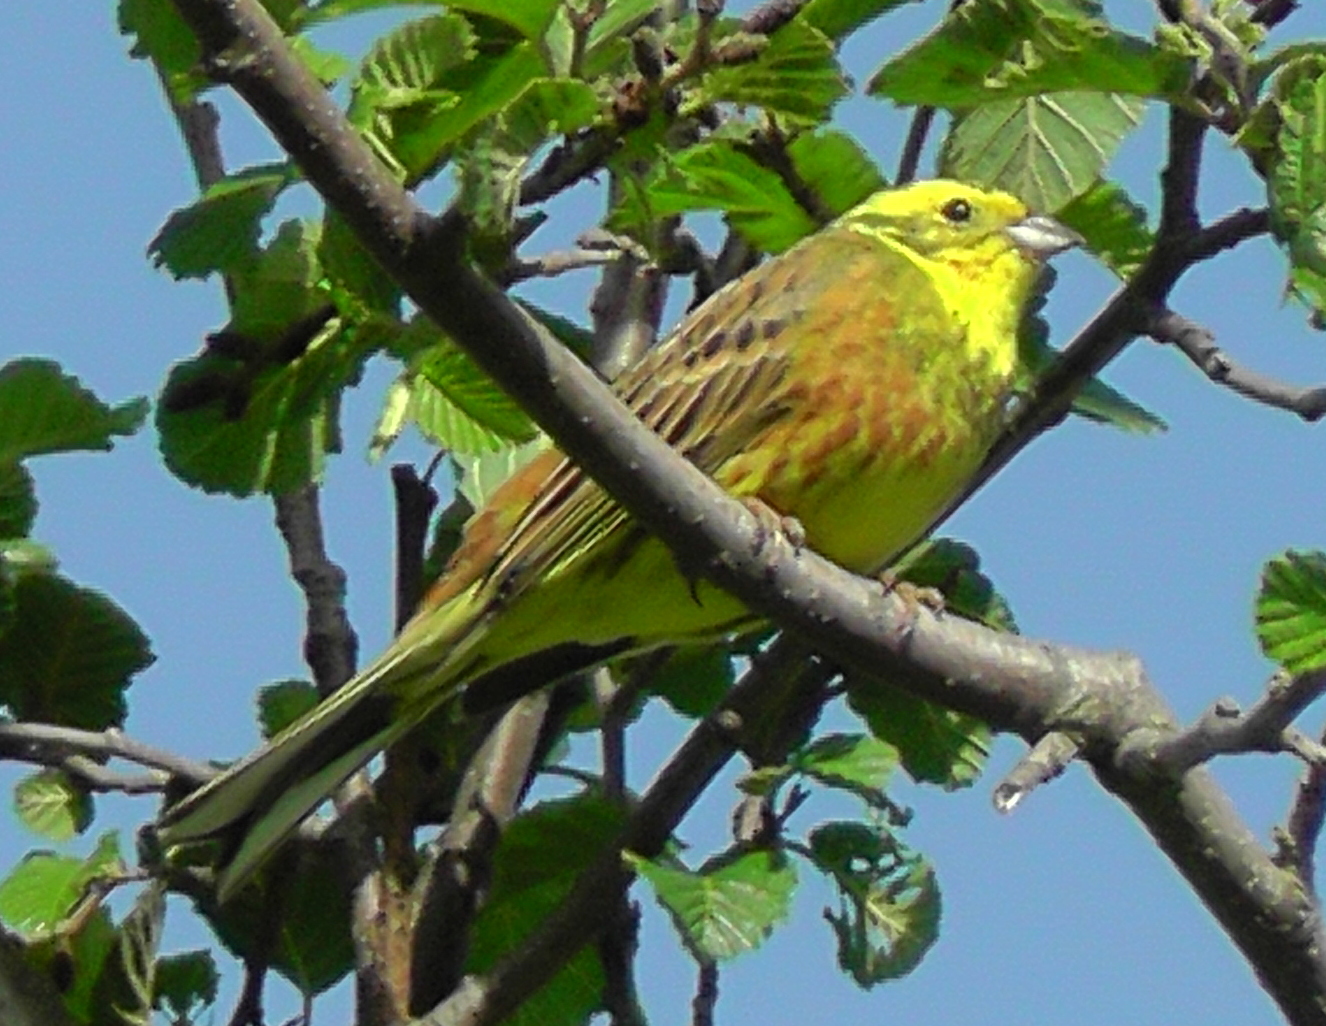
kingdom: Animalia
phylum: Chordata
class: Aves
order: Passeriformes
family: Emberizidae
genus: Emberiza
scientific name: Emberiza citrinella
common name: Yellowhammer
